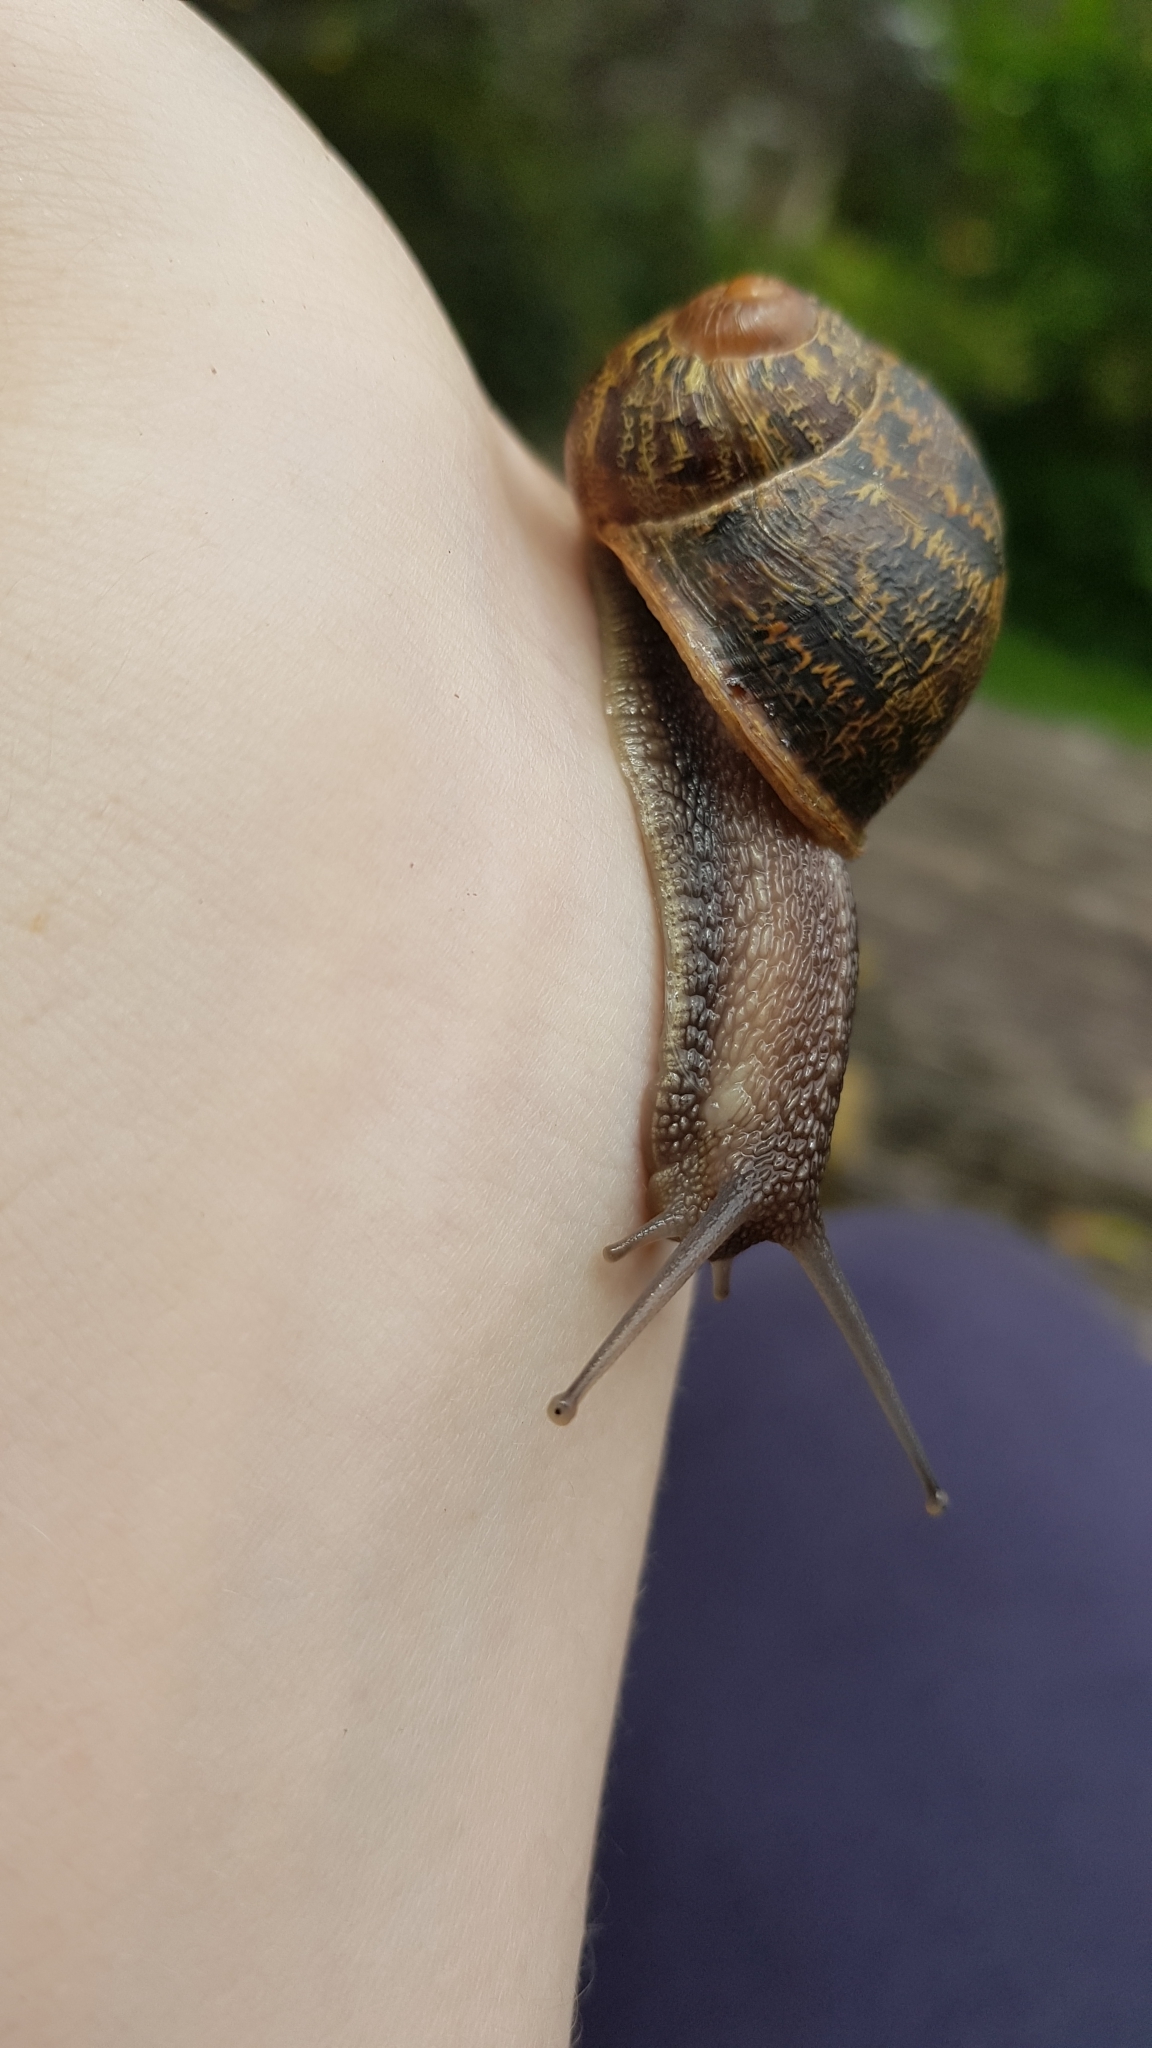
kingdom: Animalia
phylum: Mollusca
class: Gastropoda
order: Stylommatophora
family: Helicidae
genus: Cornu
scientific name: Cornu aspersum
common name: Brown garden snail
